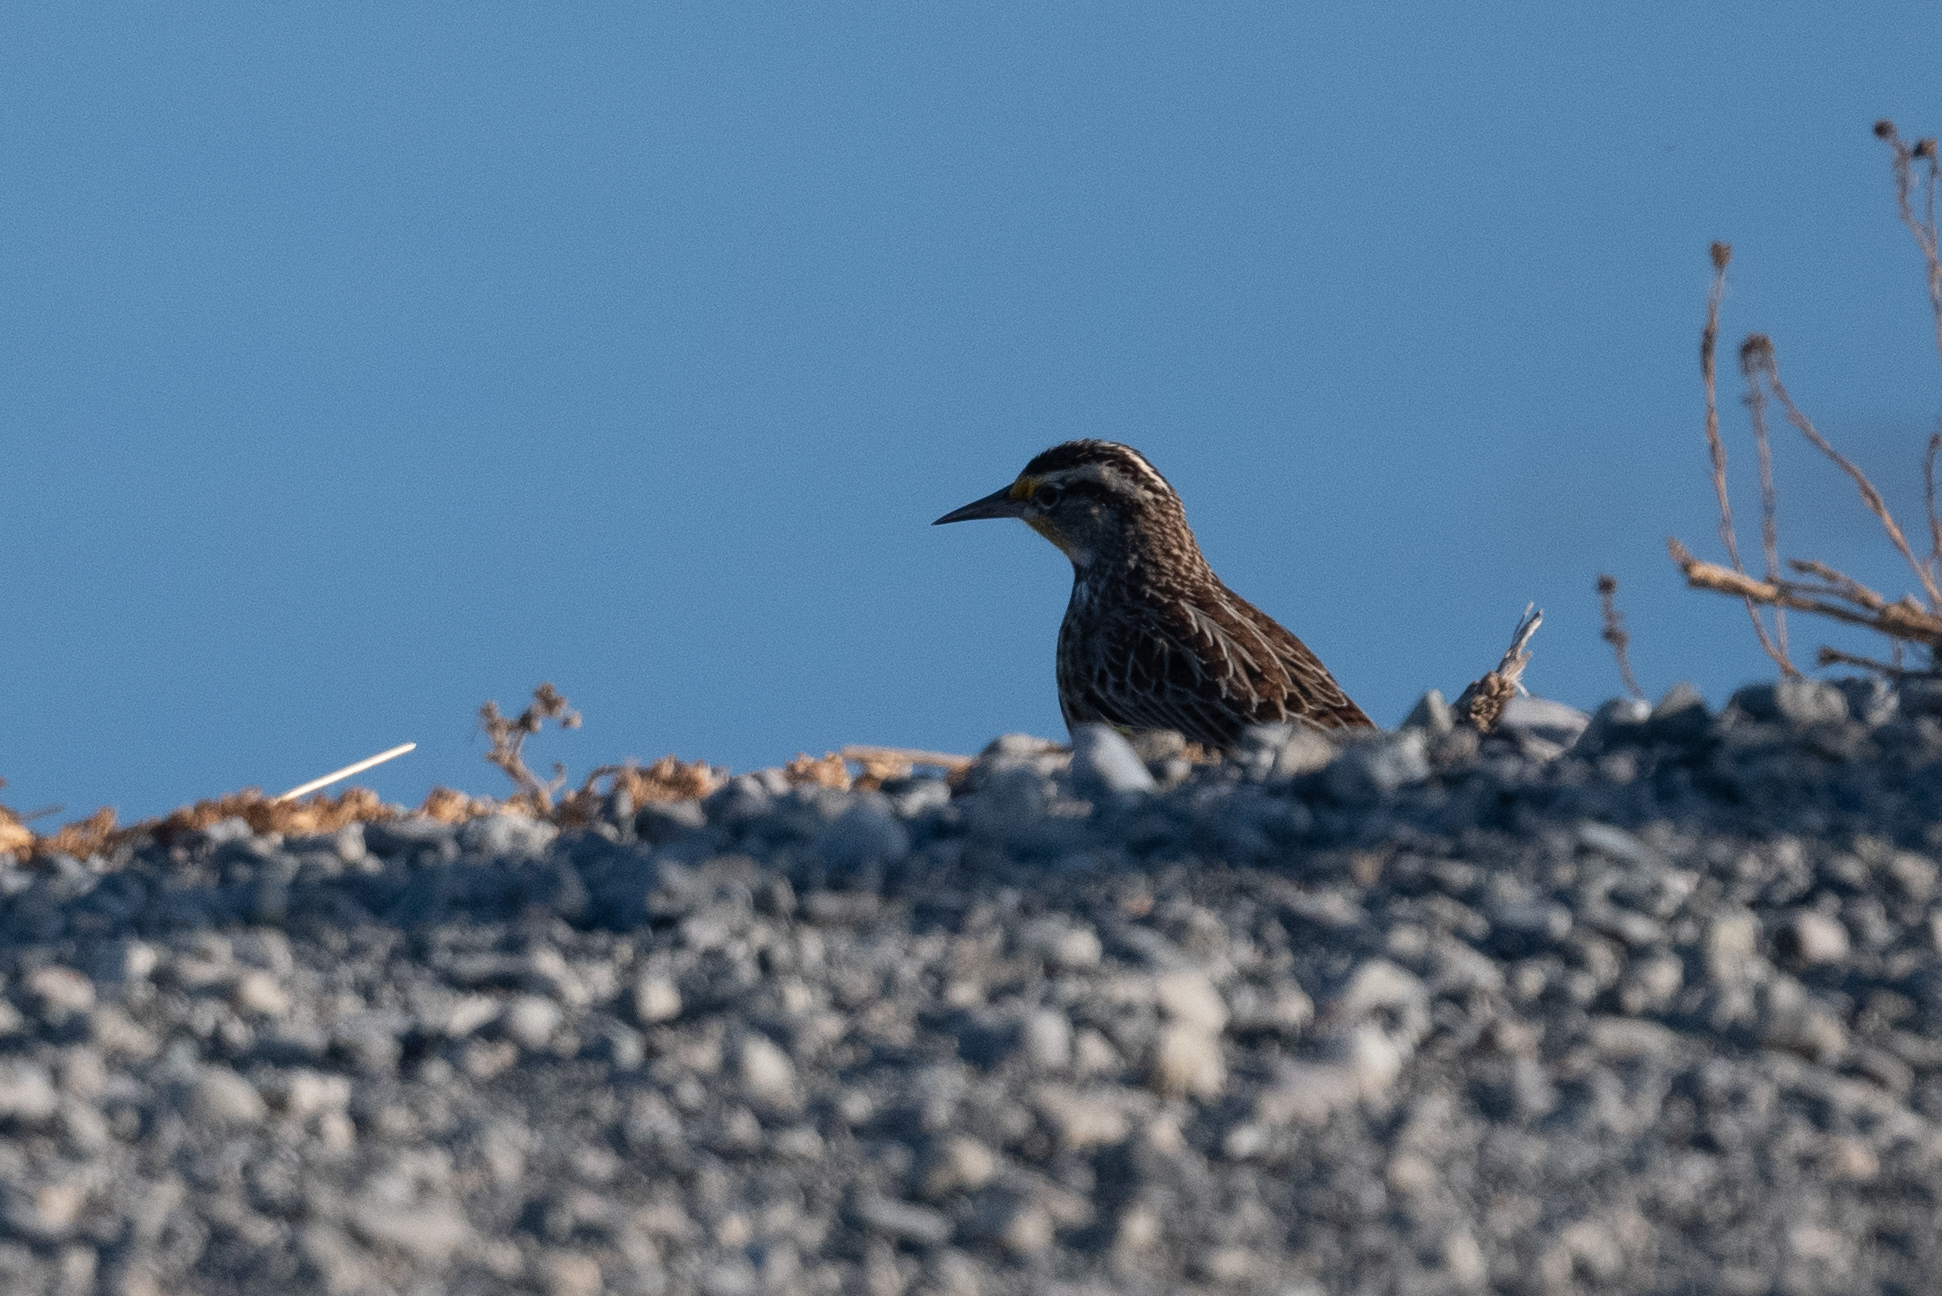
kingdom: Animalia
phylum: Chordata
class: Aves
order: Passeriformes
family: Icteridae
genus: Sturnella
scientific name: Sturnella neglecta
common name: Western meadowlark
